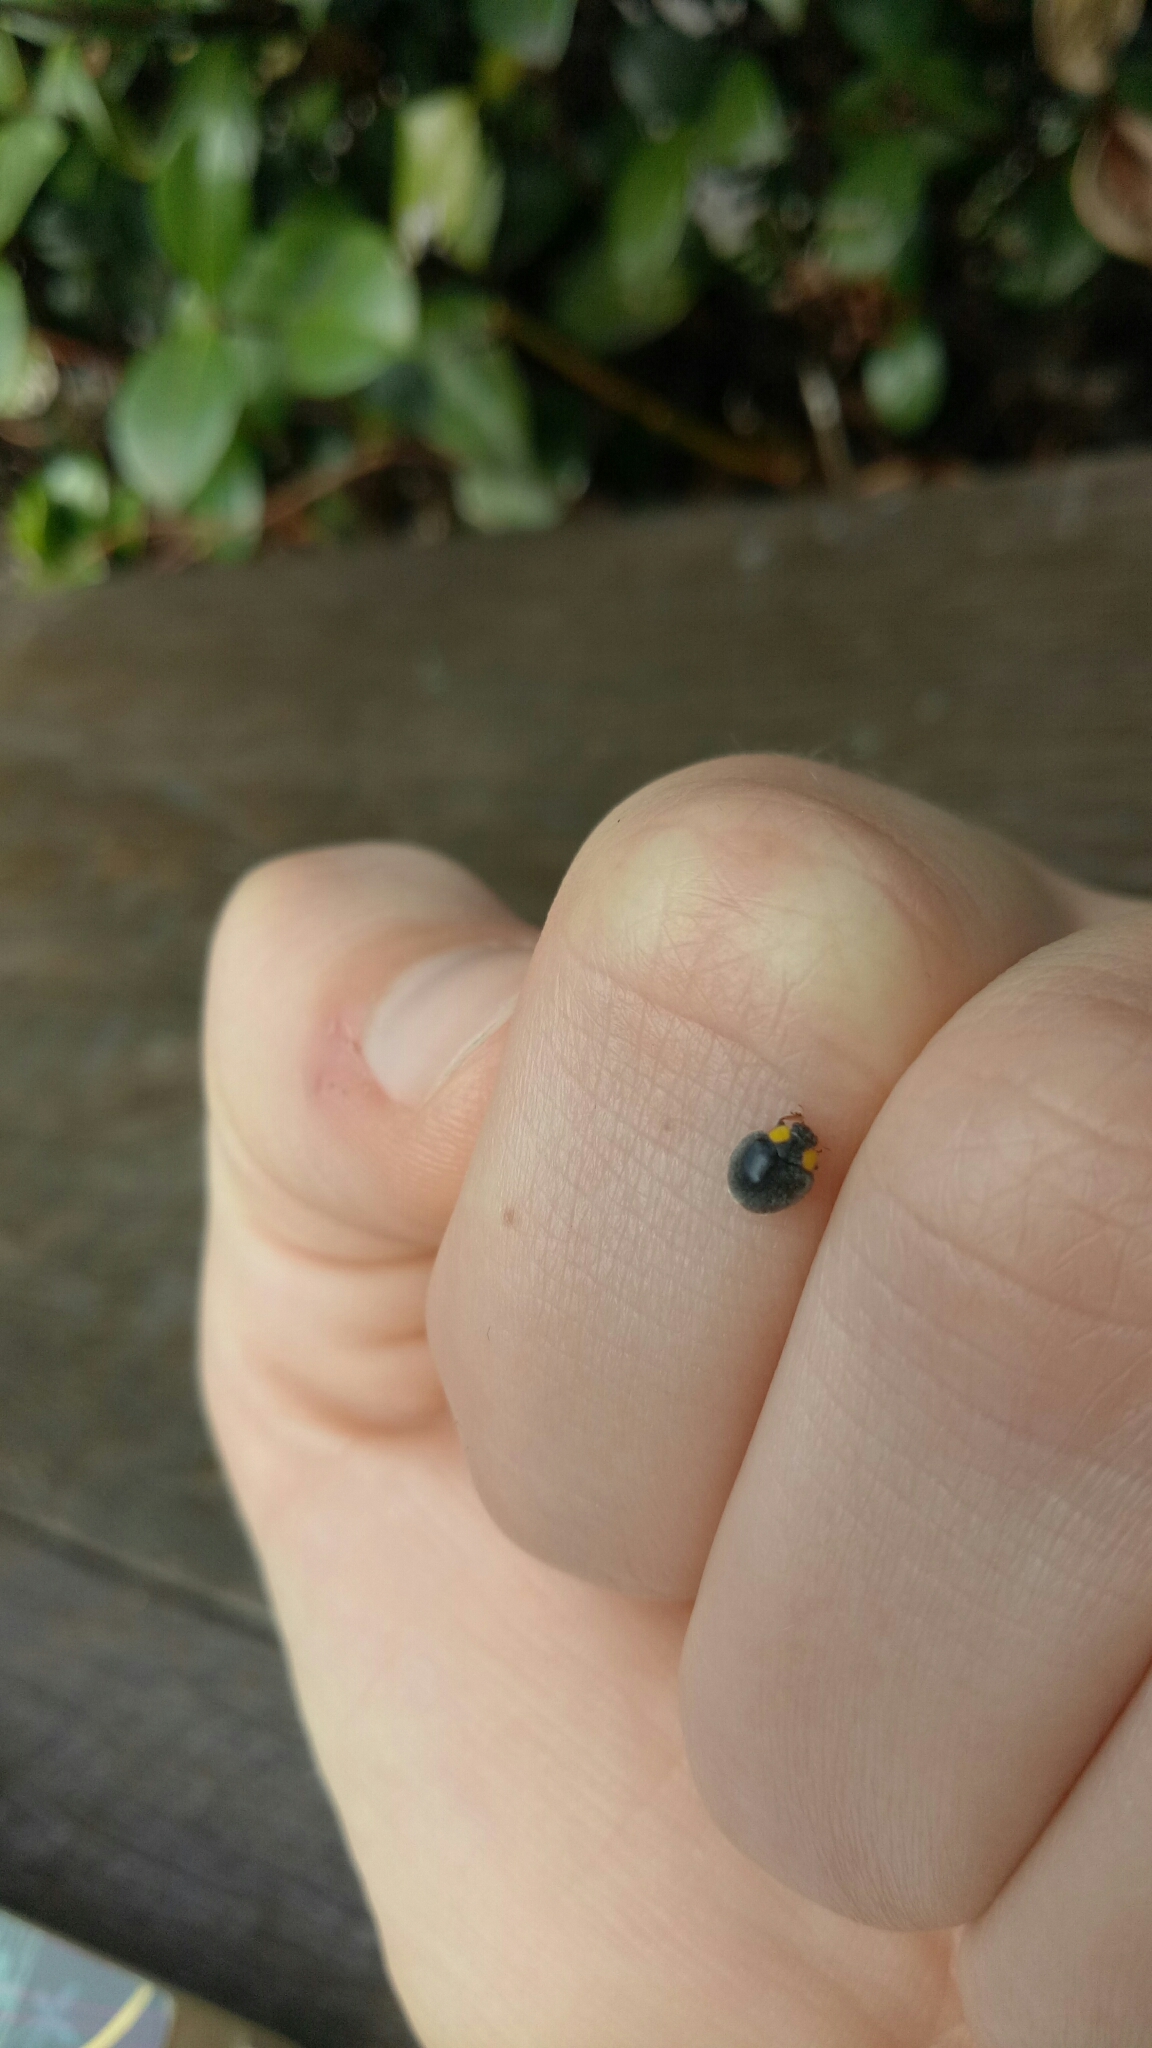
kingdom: Animalia
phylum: Arthropoda
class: Insecta
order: Coleoptera
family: Coccinellidae
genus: Scymnodes
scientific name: Scymnodes lividigaster
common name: Yellowshouldered lady beetle
